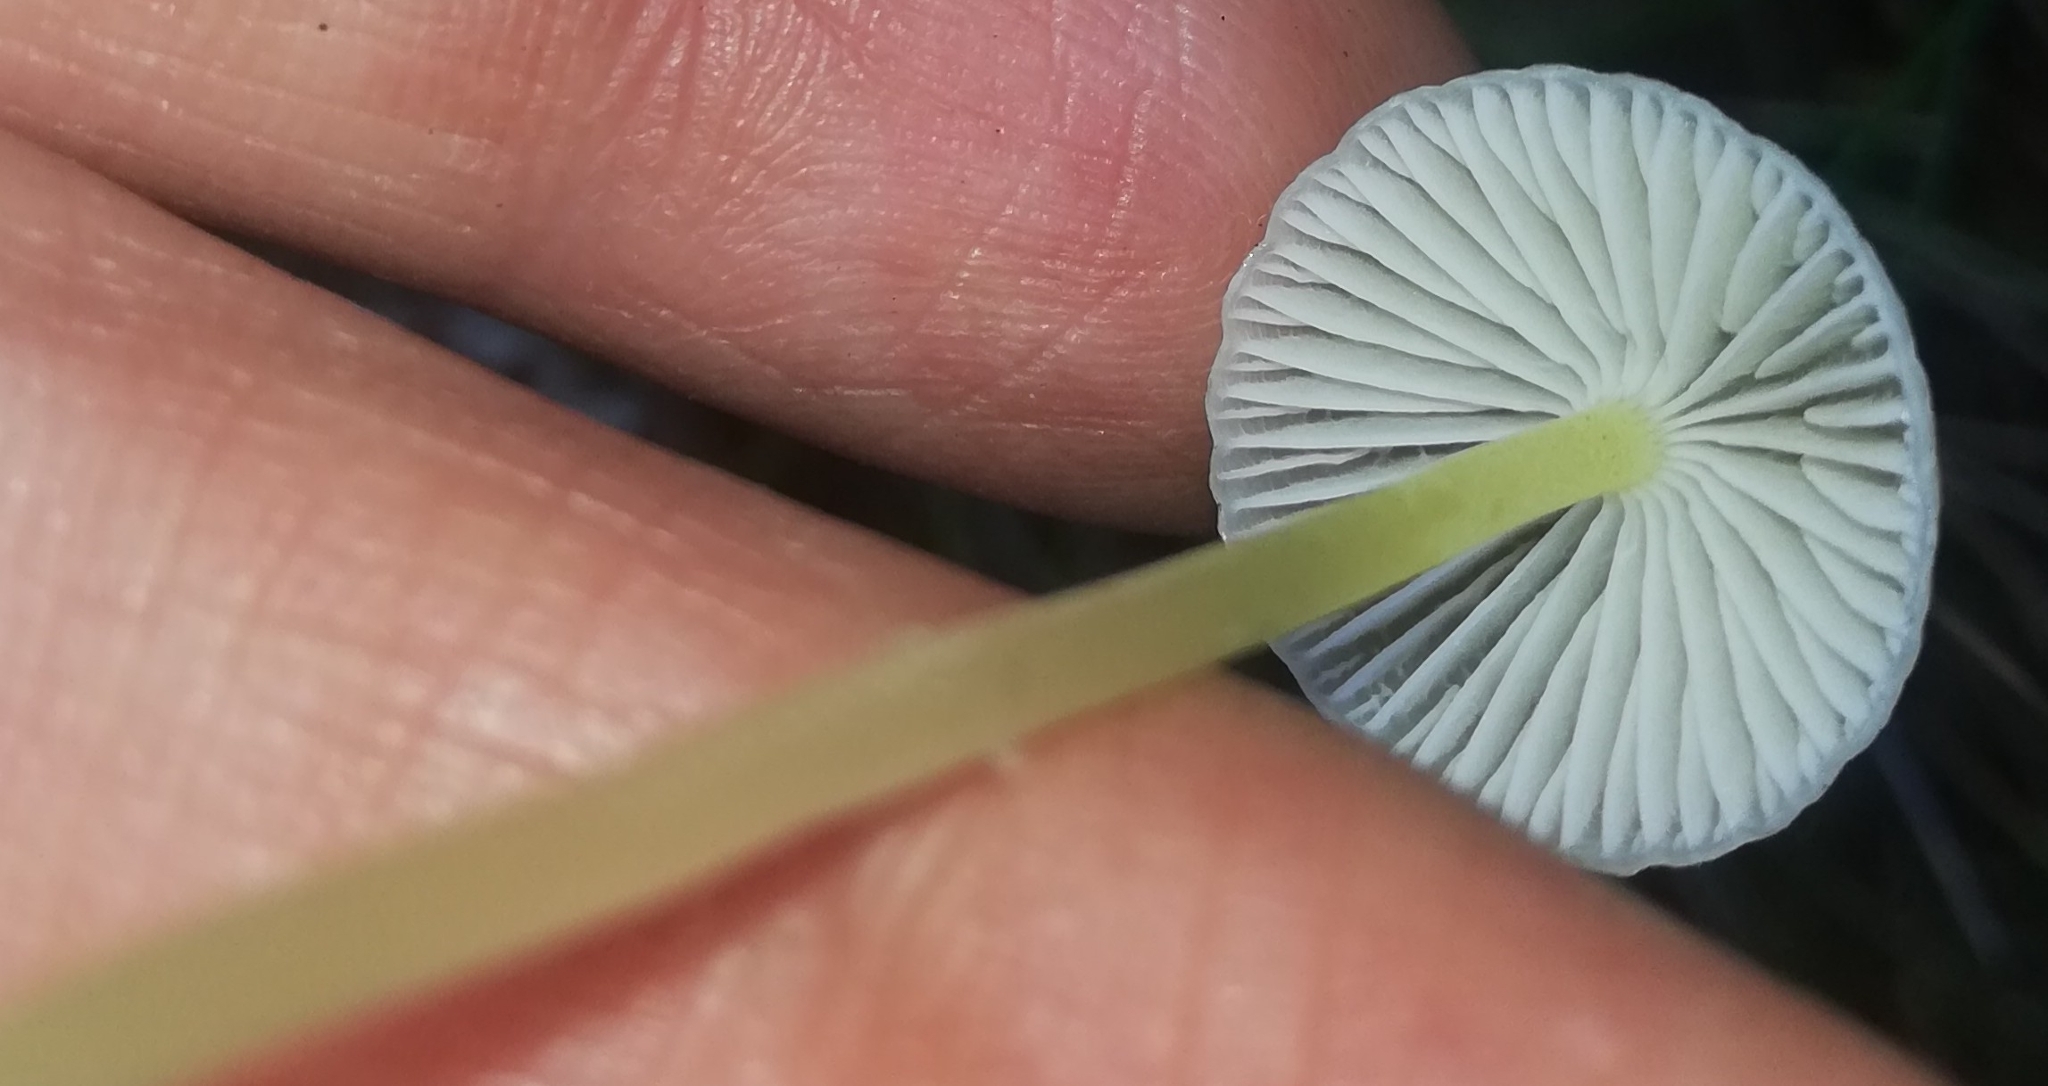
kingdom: Fungi
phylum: Basidiomycota
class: Agaricomycetes
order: Agaricales
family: Mycenaceae
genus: Mycena
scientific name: Mycena epipterygia
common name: Yellowleg bonnet
